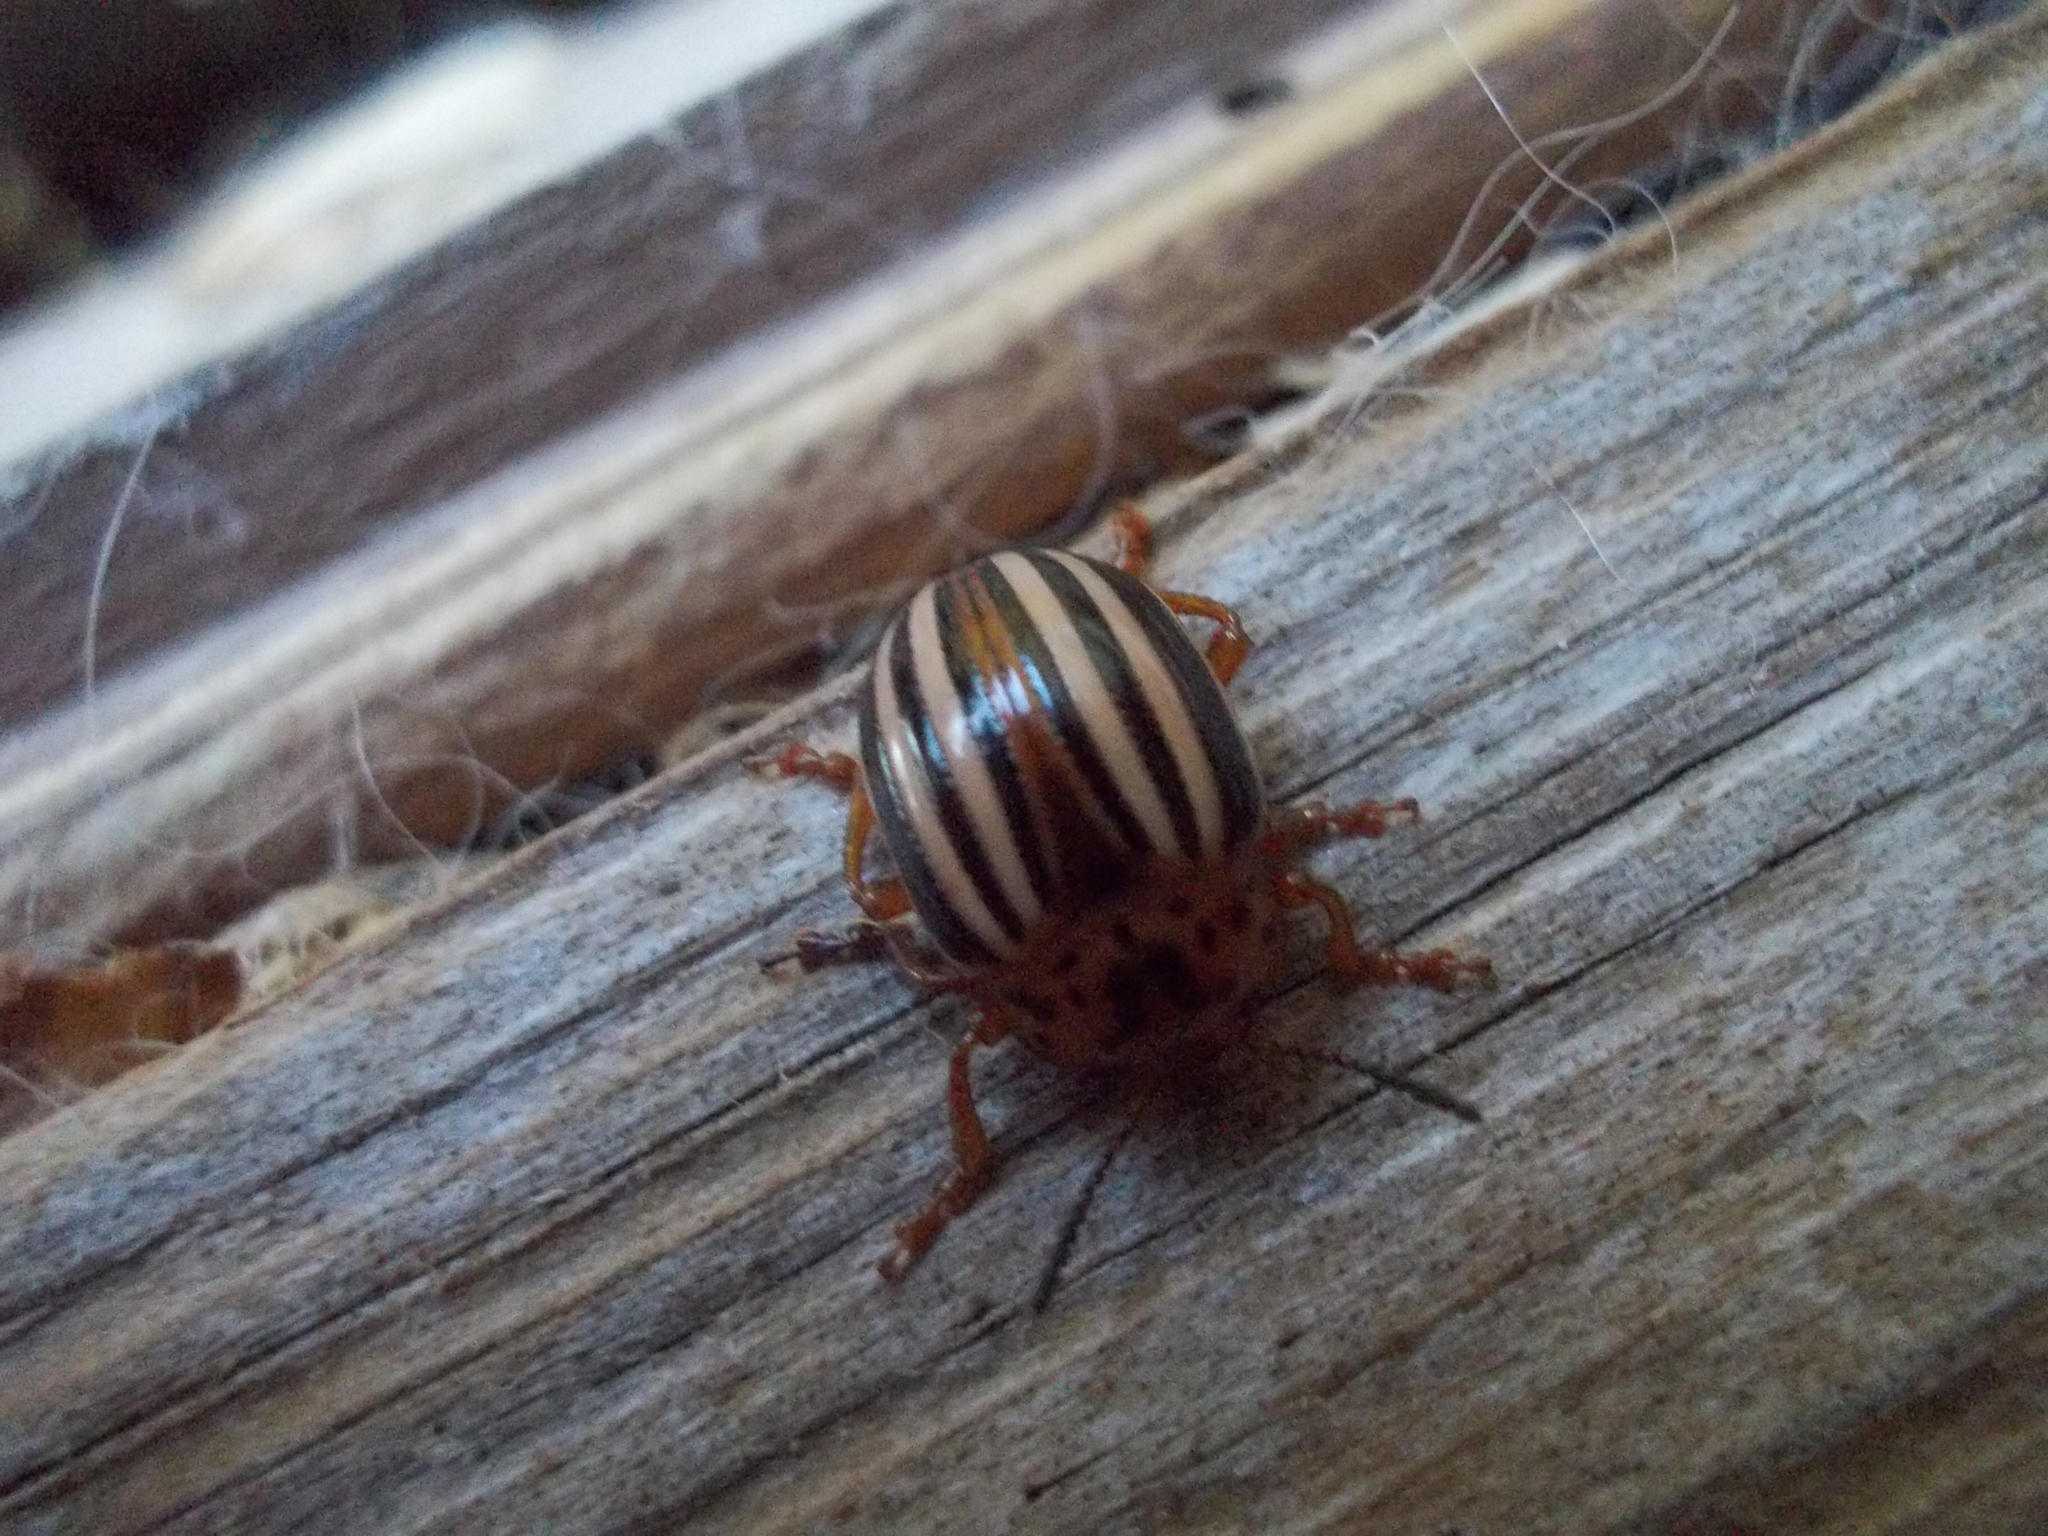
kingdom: Animalia
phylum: Arthropoda
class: Insecta
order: Coleoptera
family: Chrysomelidae
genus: Leptinotarsa
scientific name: Leptinotarsa juncta
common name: False potato beetle
